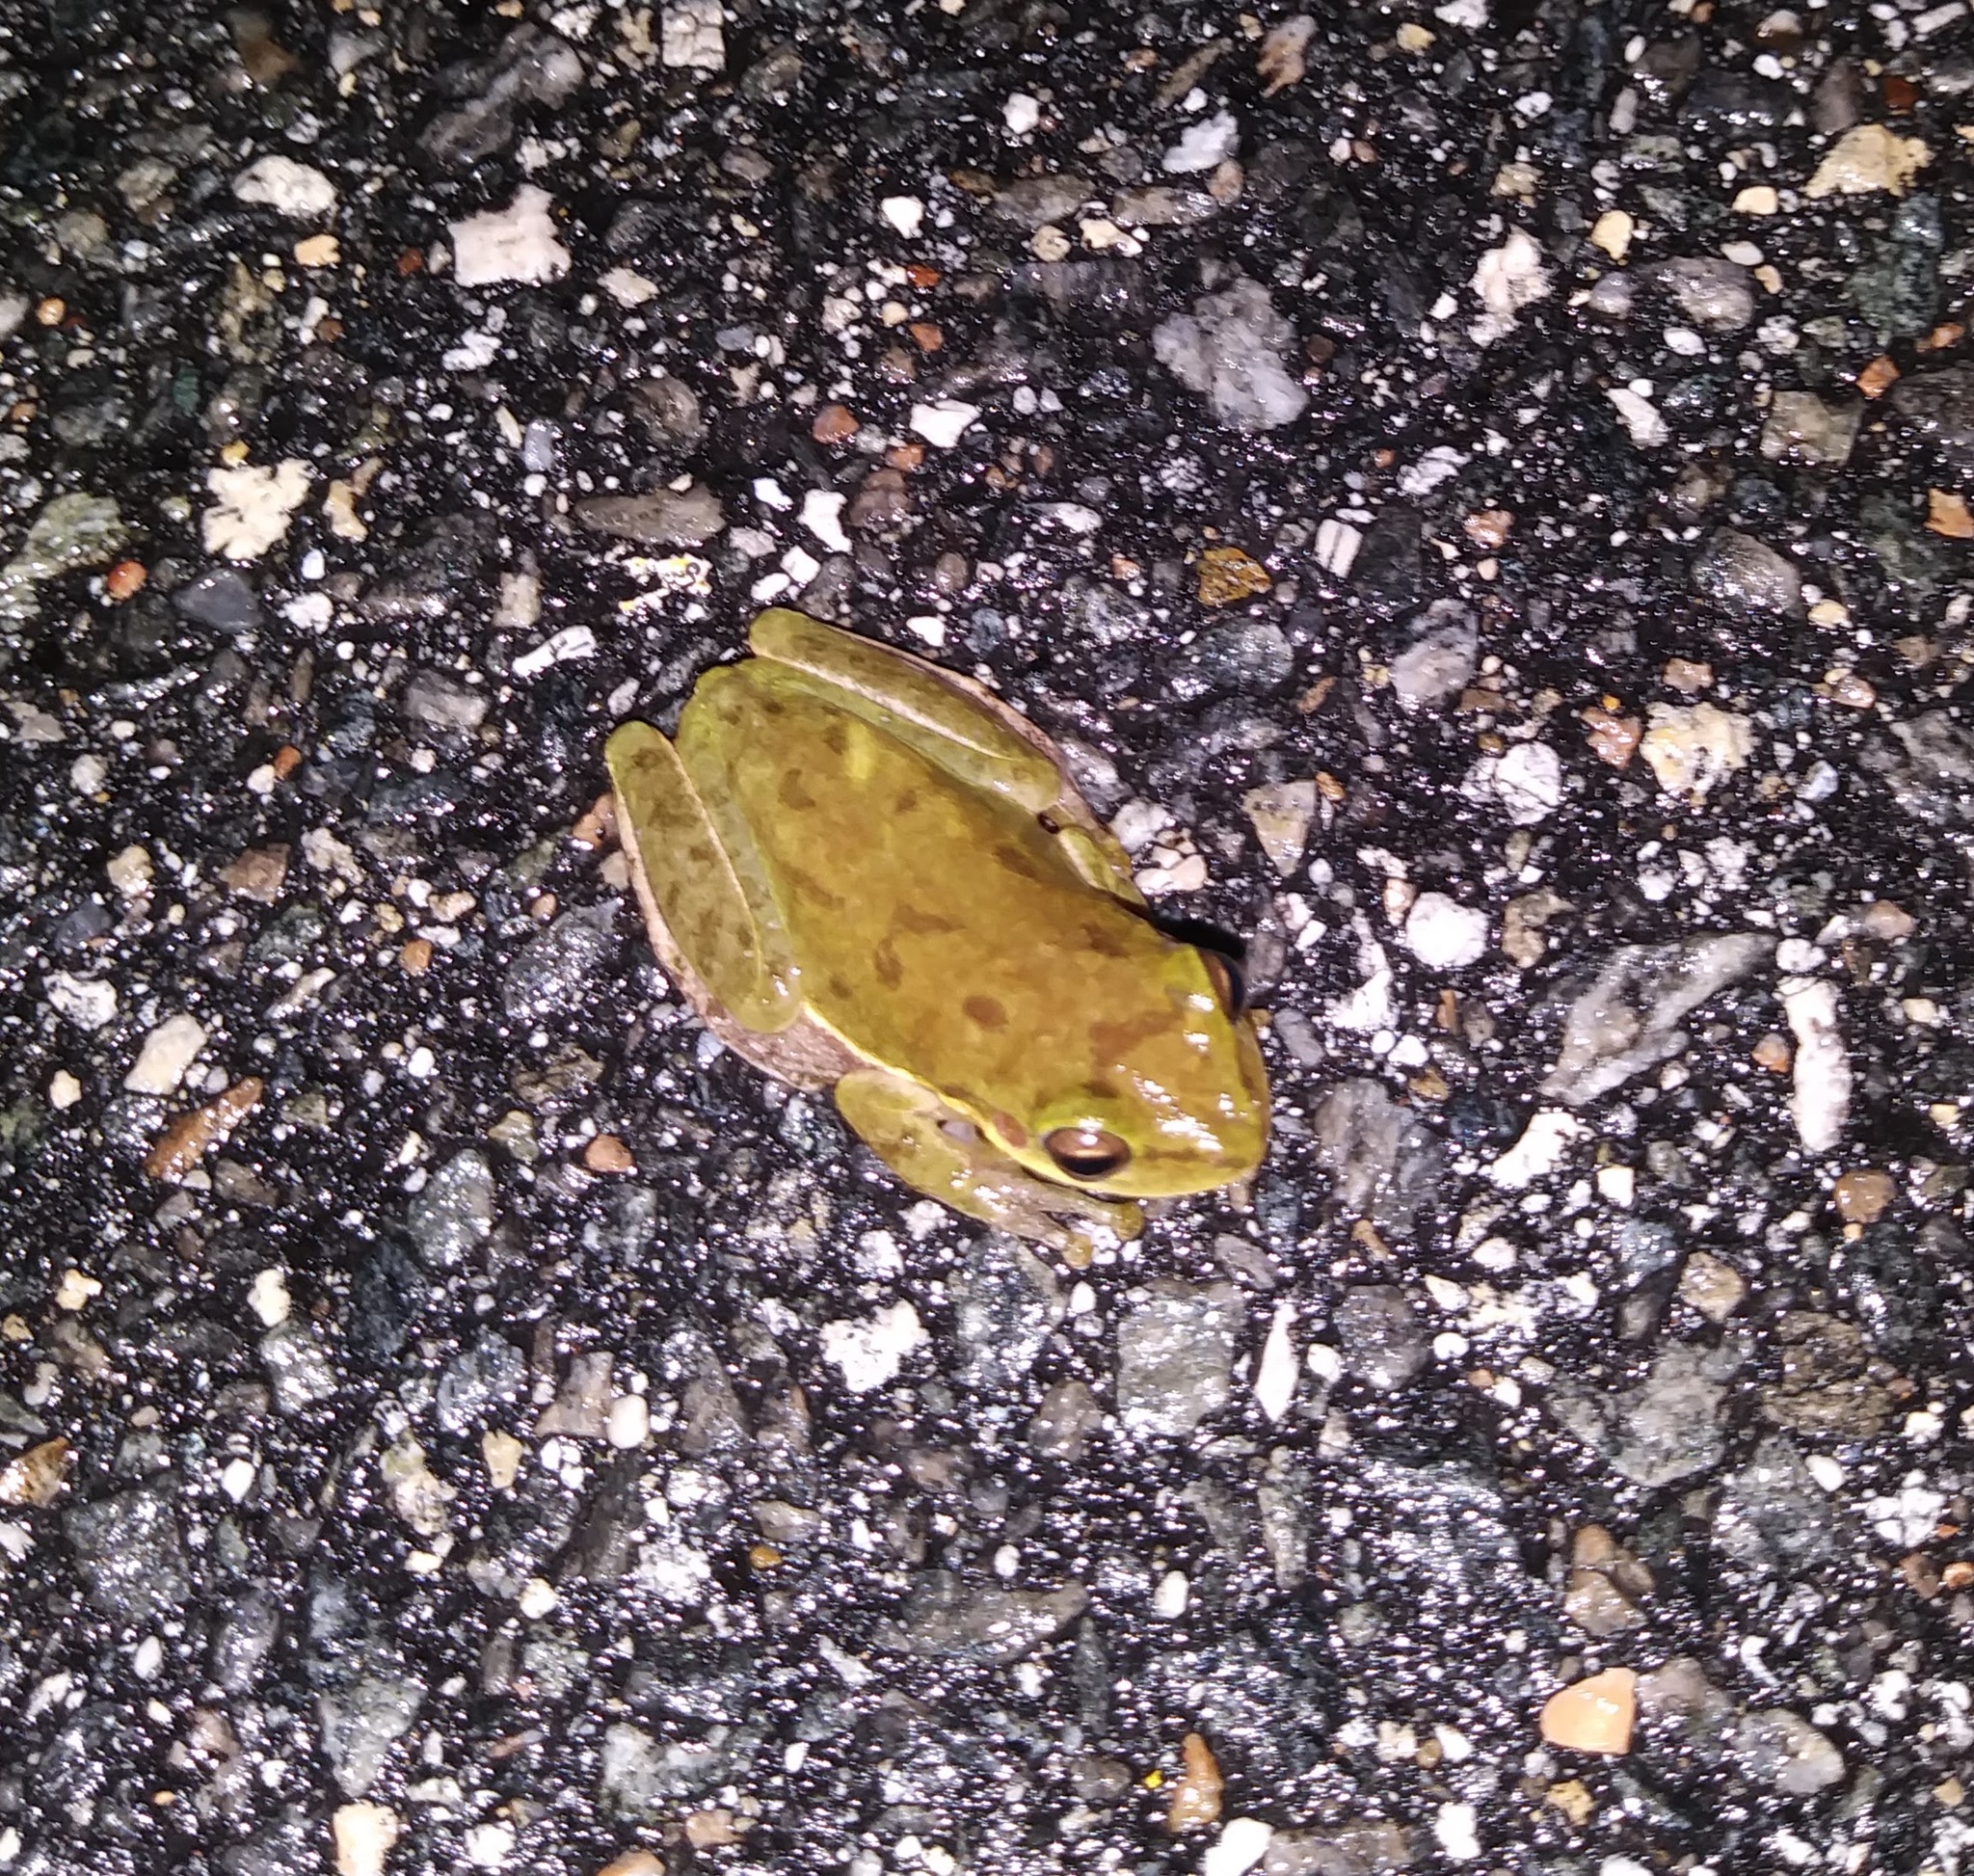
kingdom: Animalia
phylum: Chordata
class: Amphibia
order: Anura
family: Hylidae
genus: Dryophytes
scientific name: Dryophytes squirellus
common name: Squirrel treefrog
